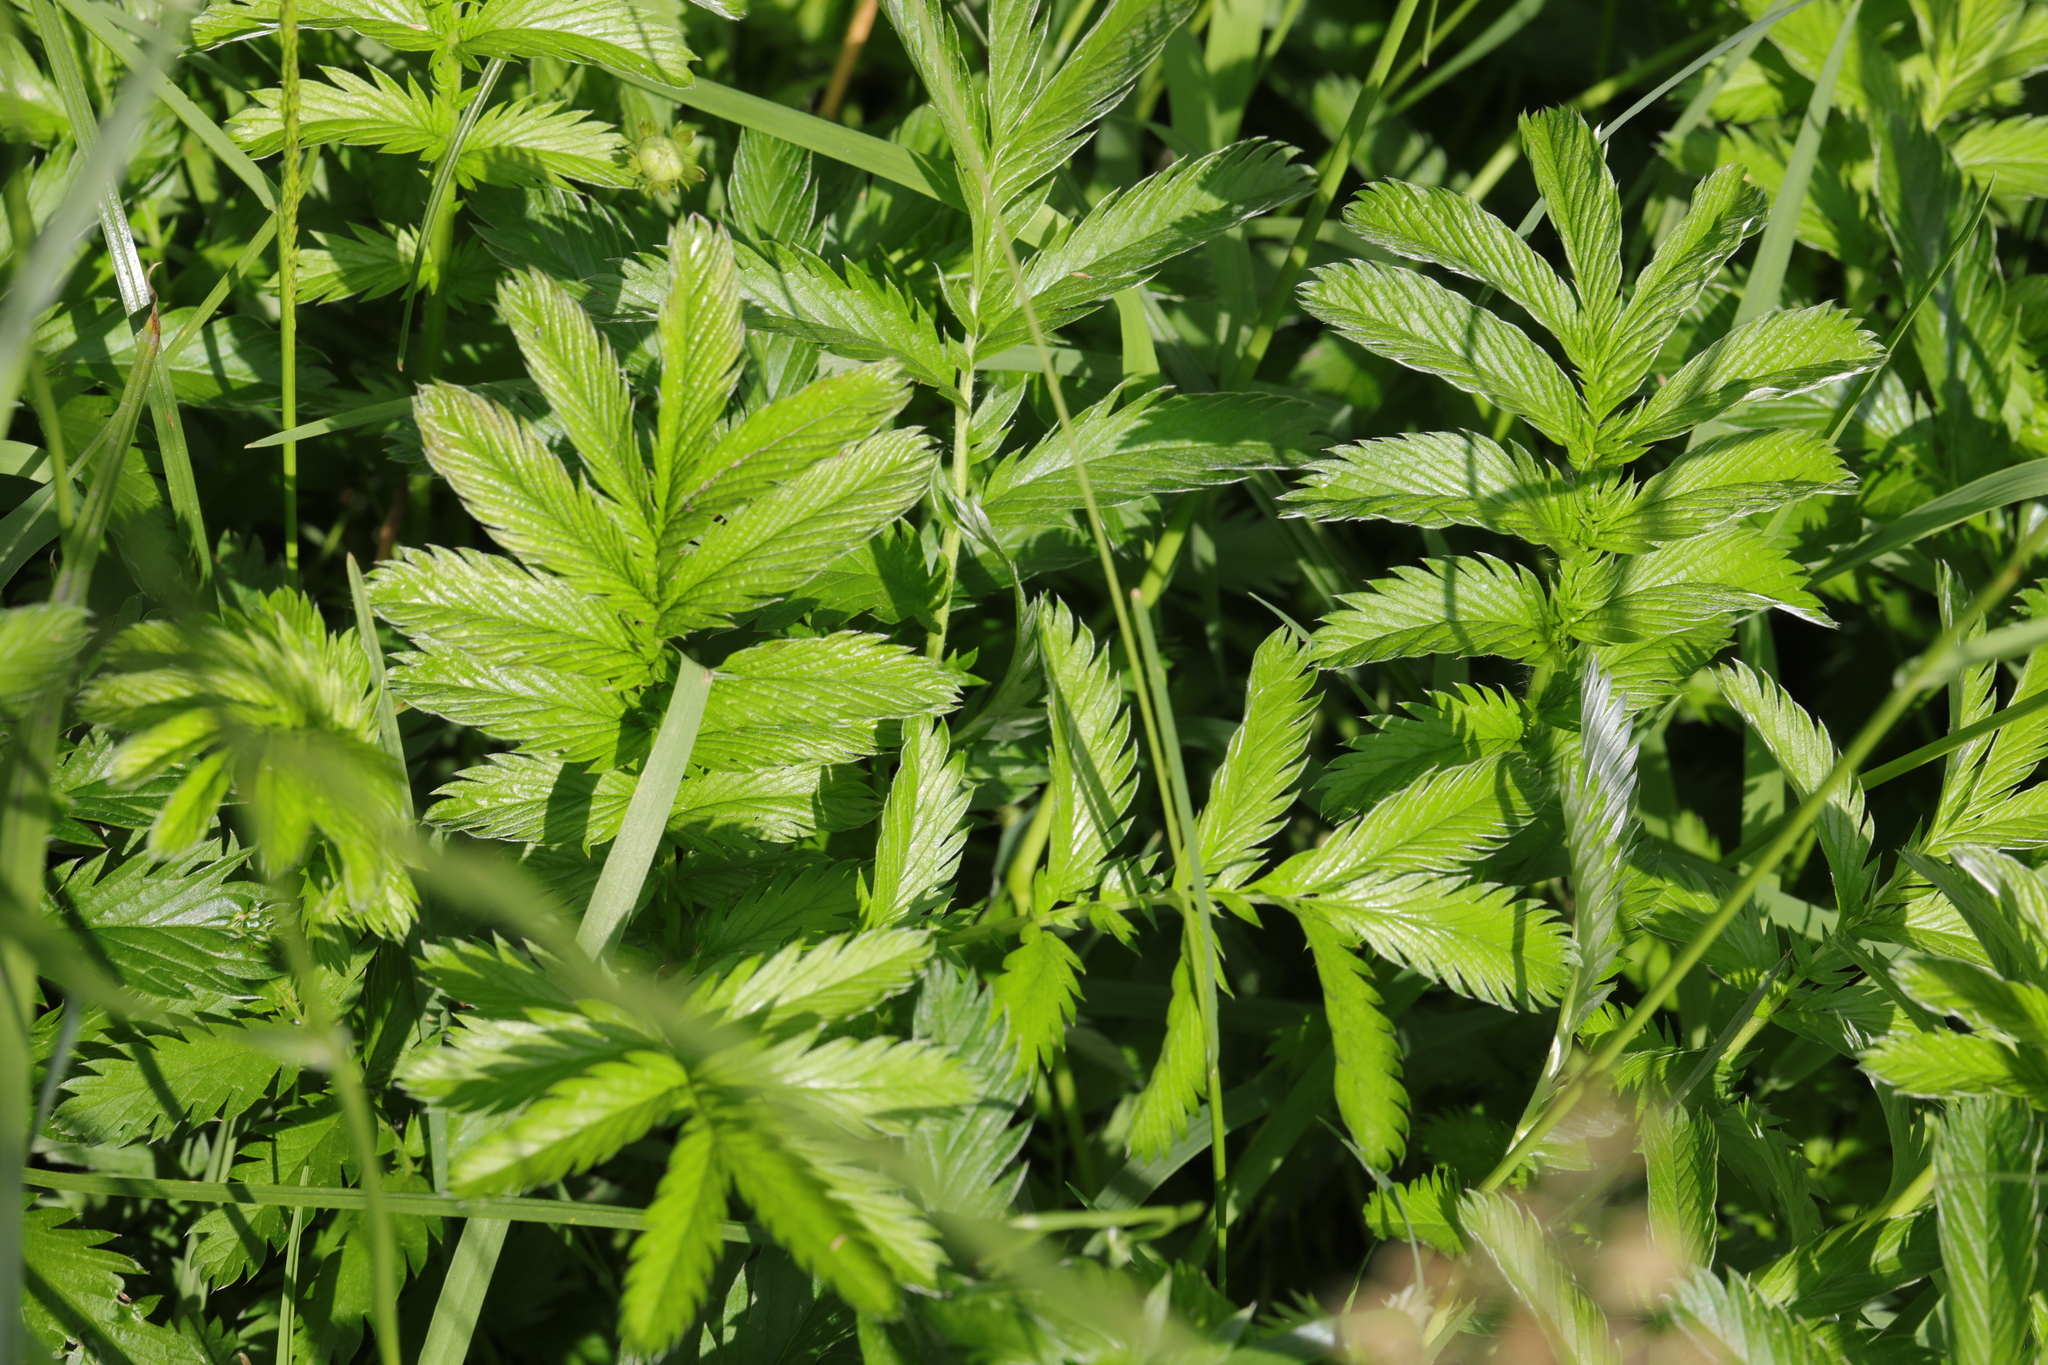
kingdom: Plantae
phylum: Tracheophyta
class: Magnoliopsida
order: Rosales
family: Rosaceae
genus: Argentina
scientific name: Argentina anserina
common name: Common silverweed
